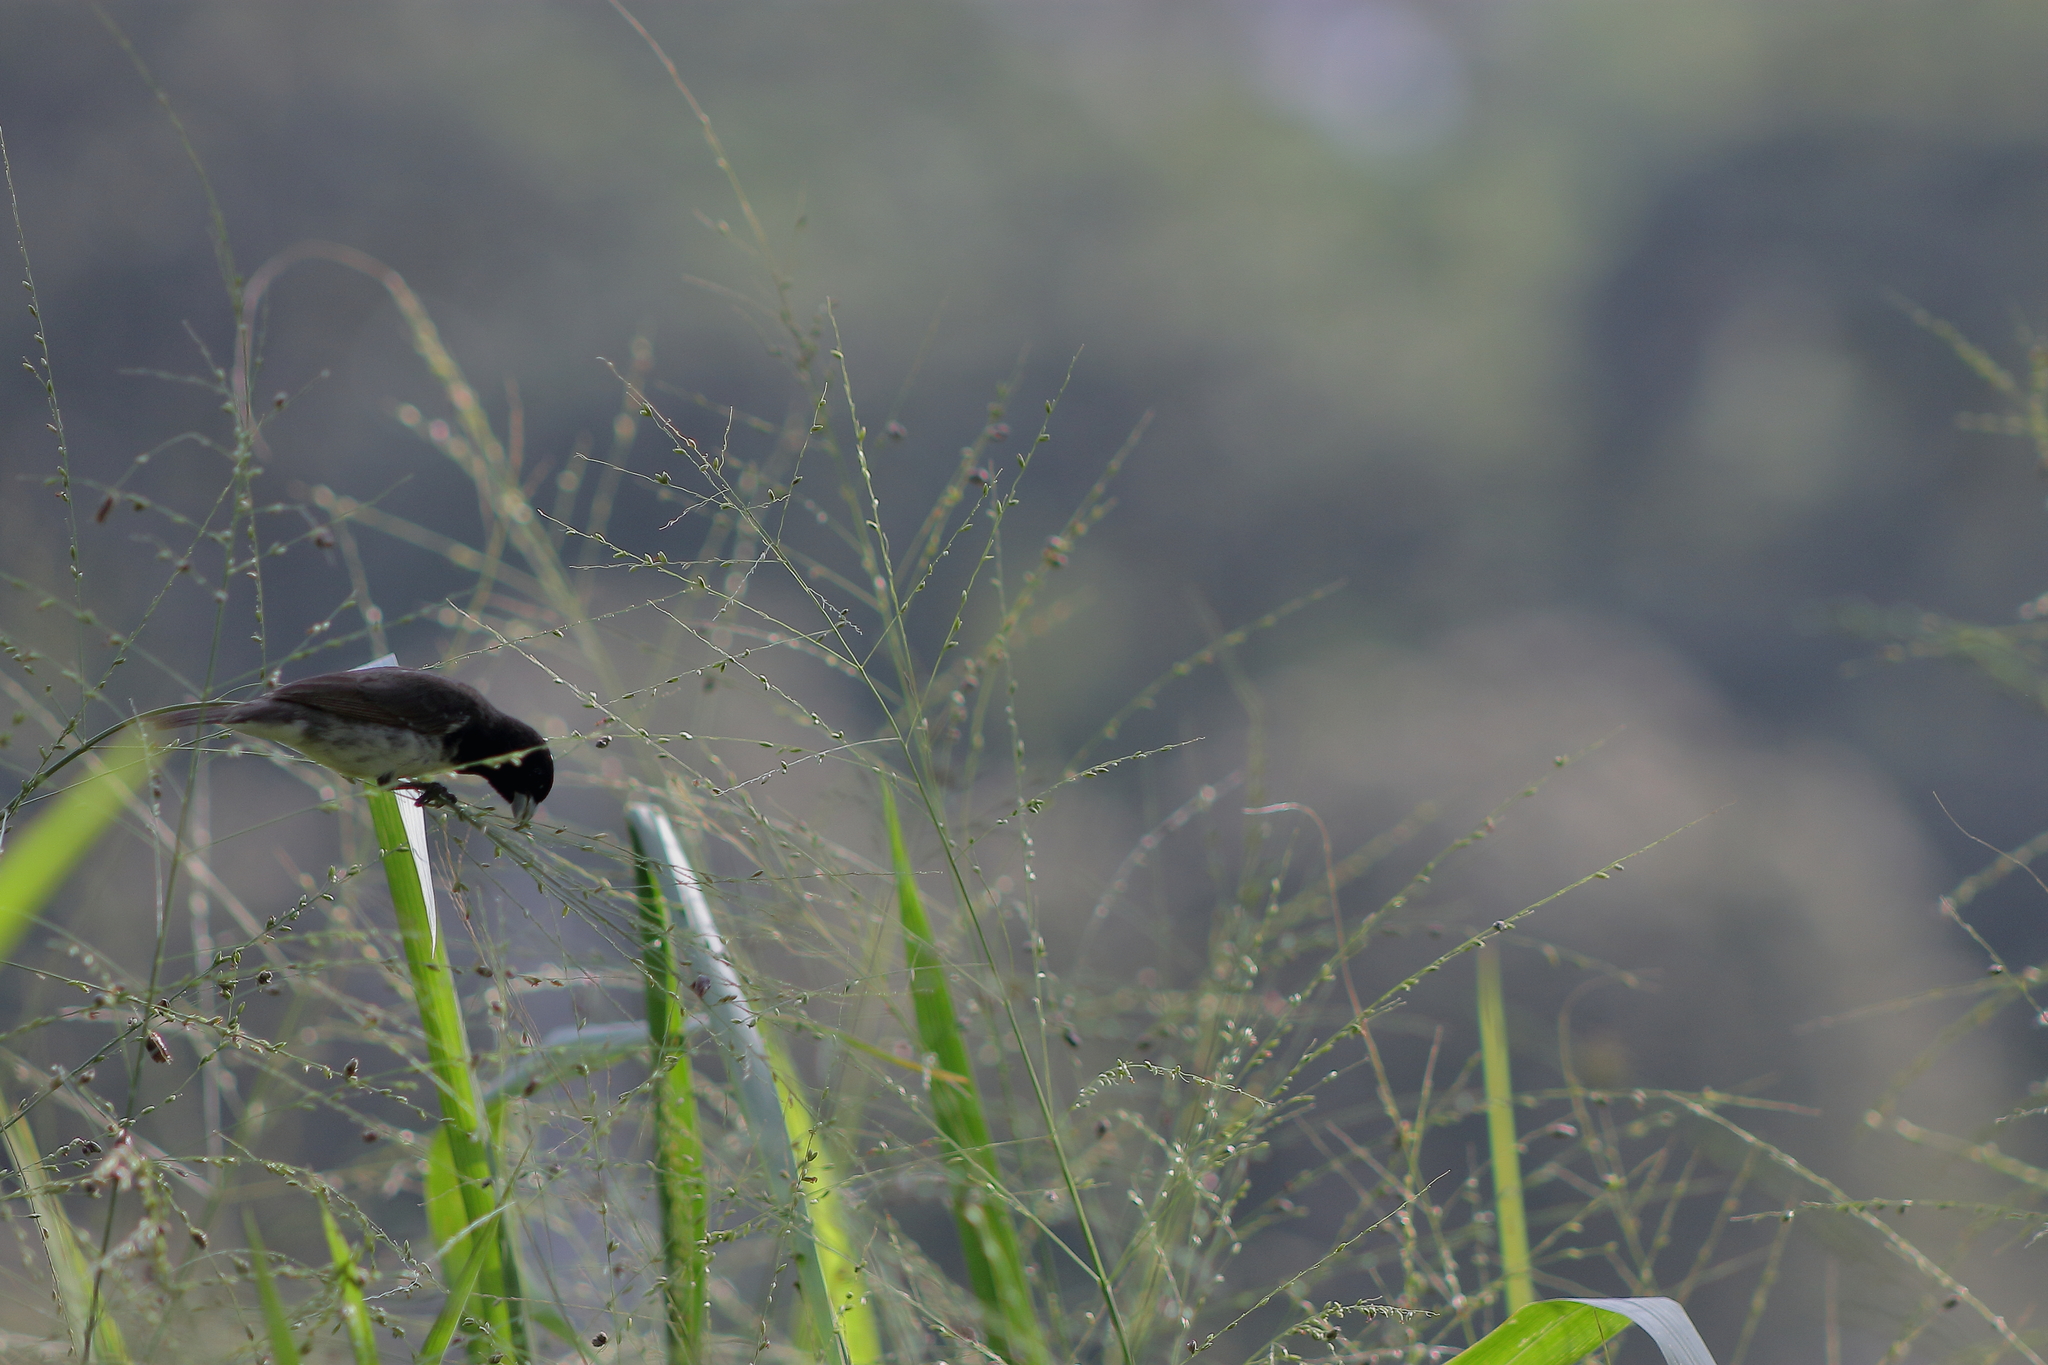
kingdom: Animalia
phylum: Chordata
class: Aves
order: Passeriformes
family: Thraupidae
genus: Sporophila
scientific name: Sporophila nigricollis
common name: Yellow-bellied seedeater
